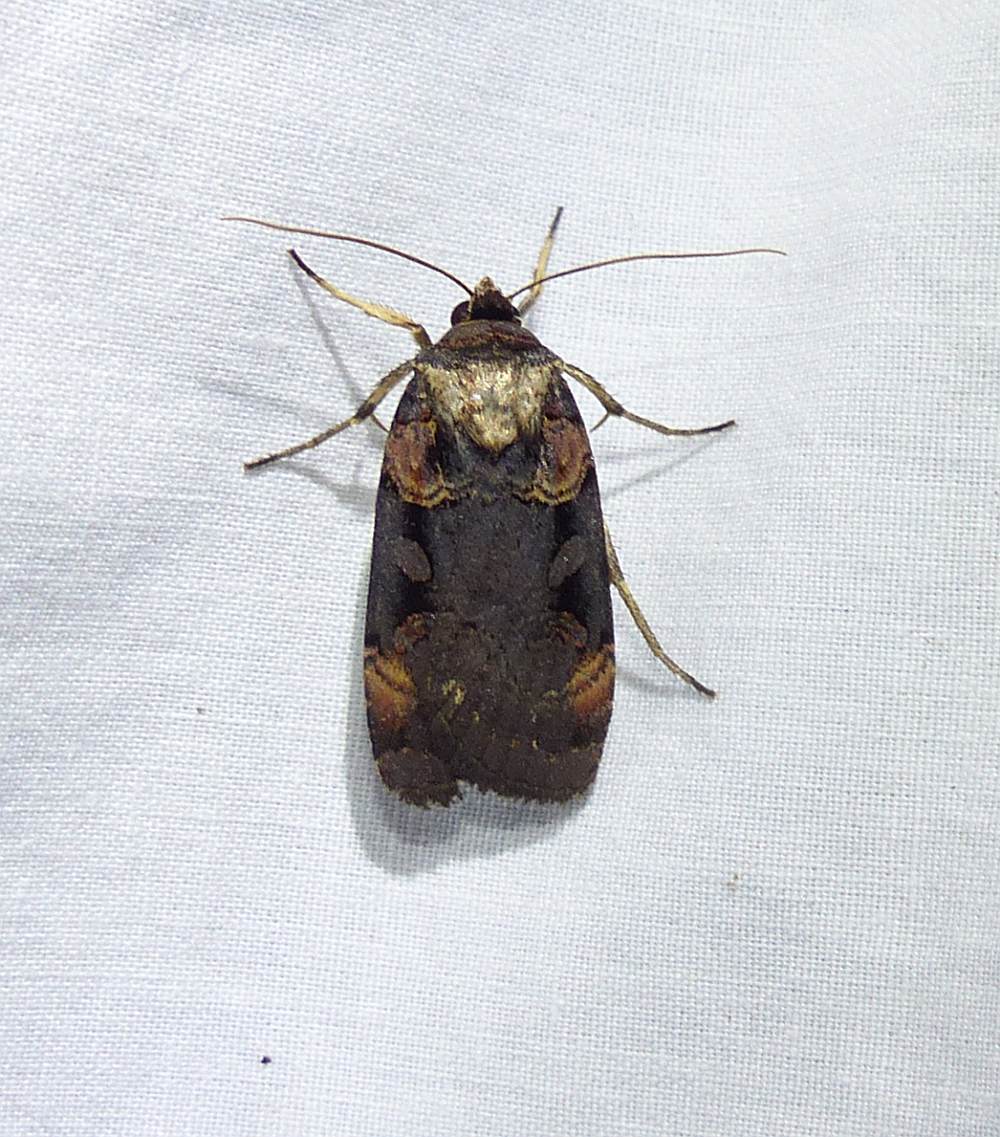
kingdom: Animalia
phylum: Arthropoda
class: Insecta
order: Lepidoptera
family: Noctuidae
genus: Pseudohermonassa
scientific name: Pseudohermonassa bicarnea
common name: Pink spotted dart
